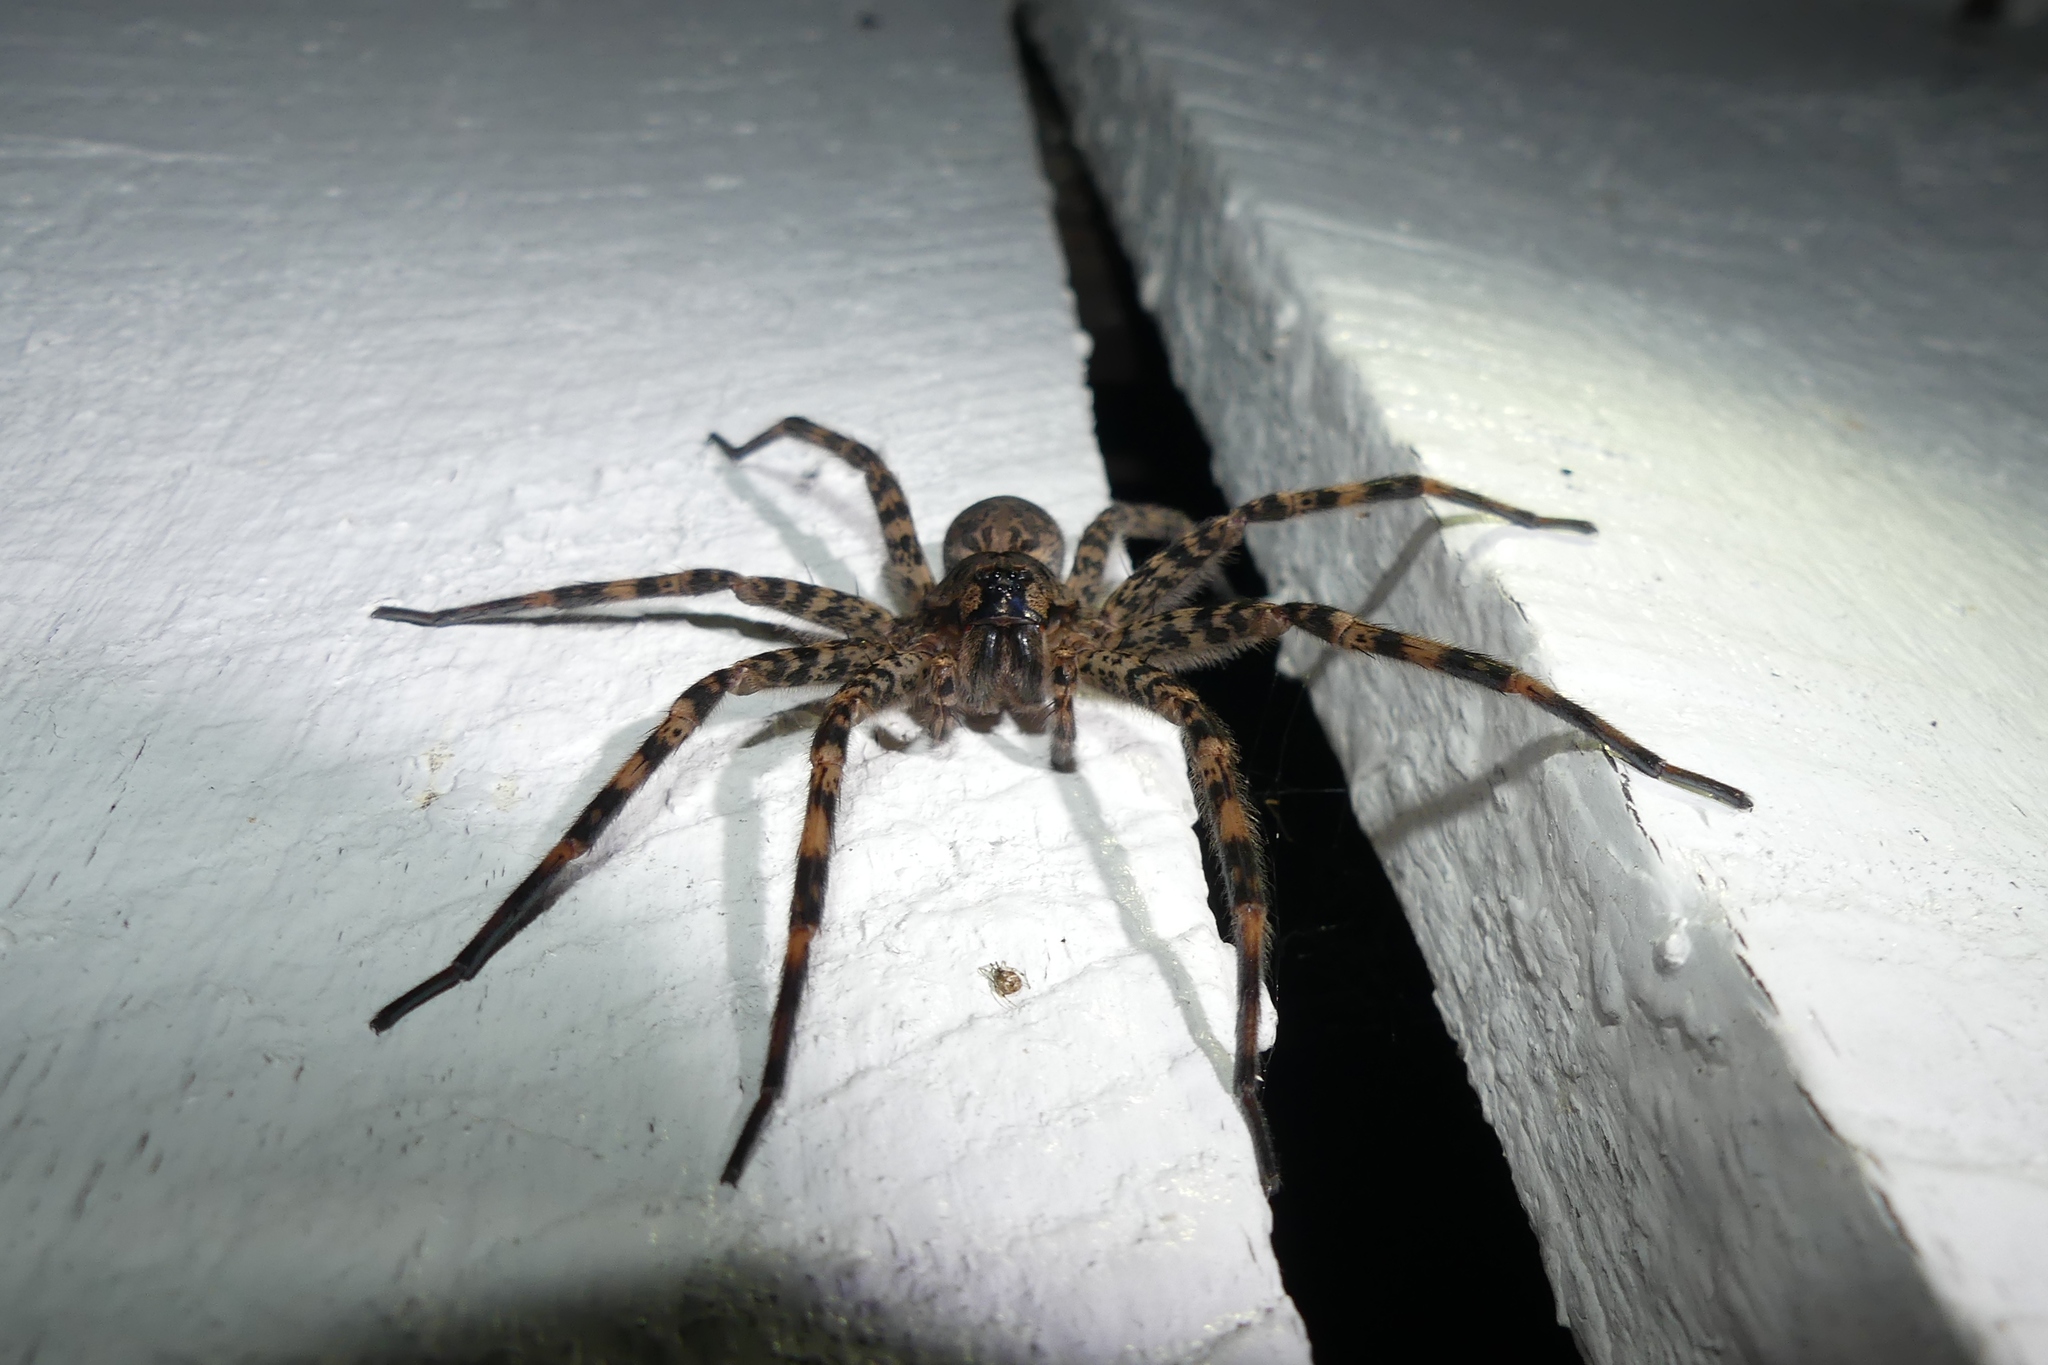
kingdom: Animalia
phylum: Arthropoda
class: Arachnida
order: Araneae
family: Pisauridae
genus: Dolomedes
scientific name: Dolomedes tenebrosus
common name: Dark fishing spider
